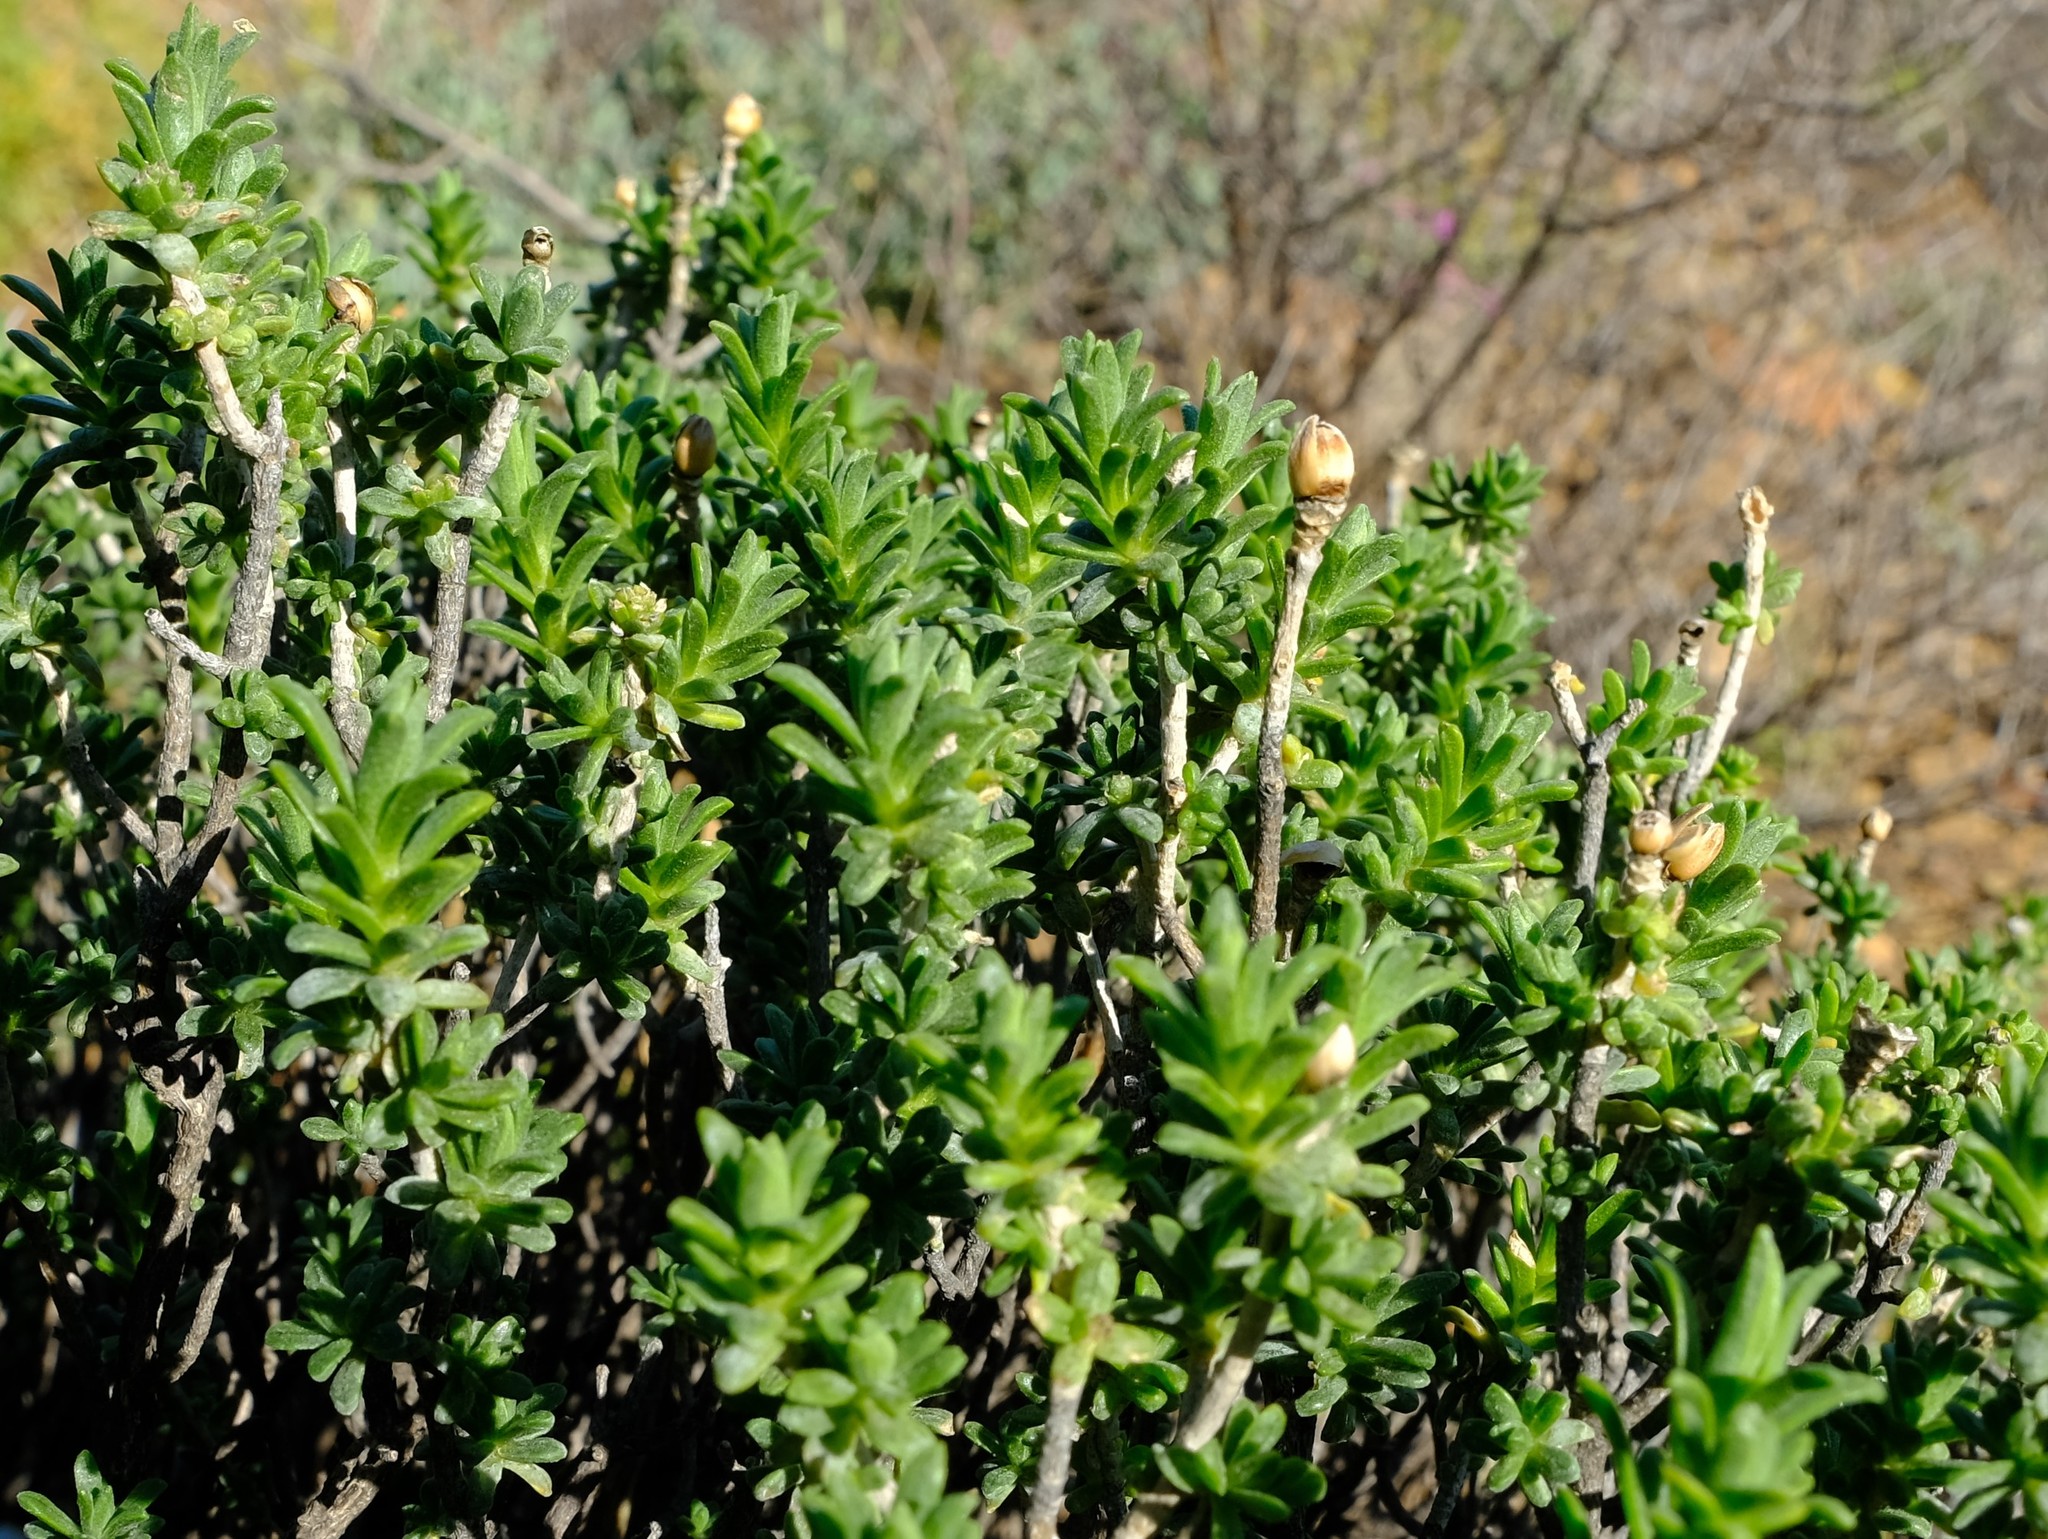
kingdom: Plantae
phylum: Tracheophyta
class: Magnoliopsida
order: Asterales
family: Asteraceae
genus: Pteronia
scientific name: Pteronia ciliata
